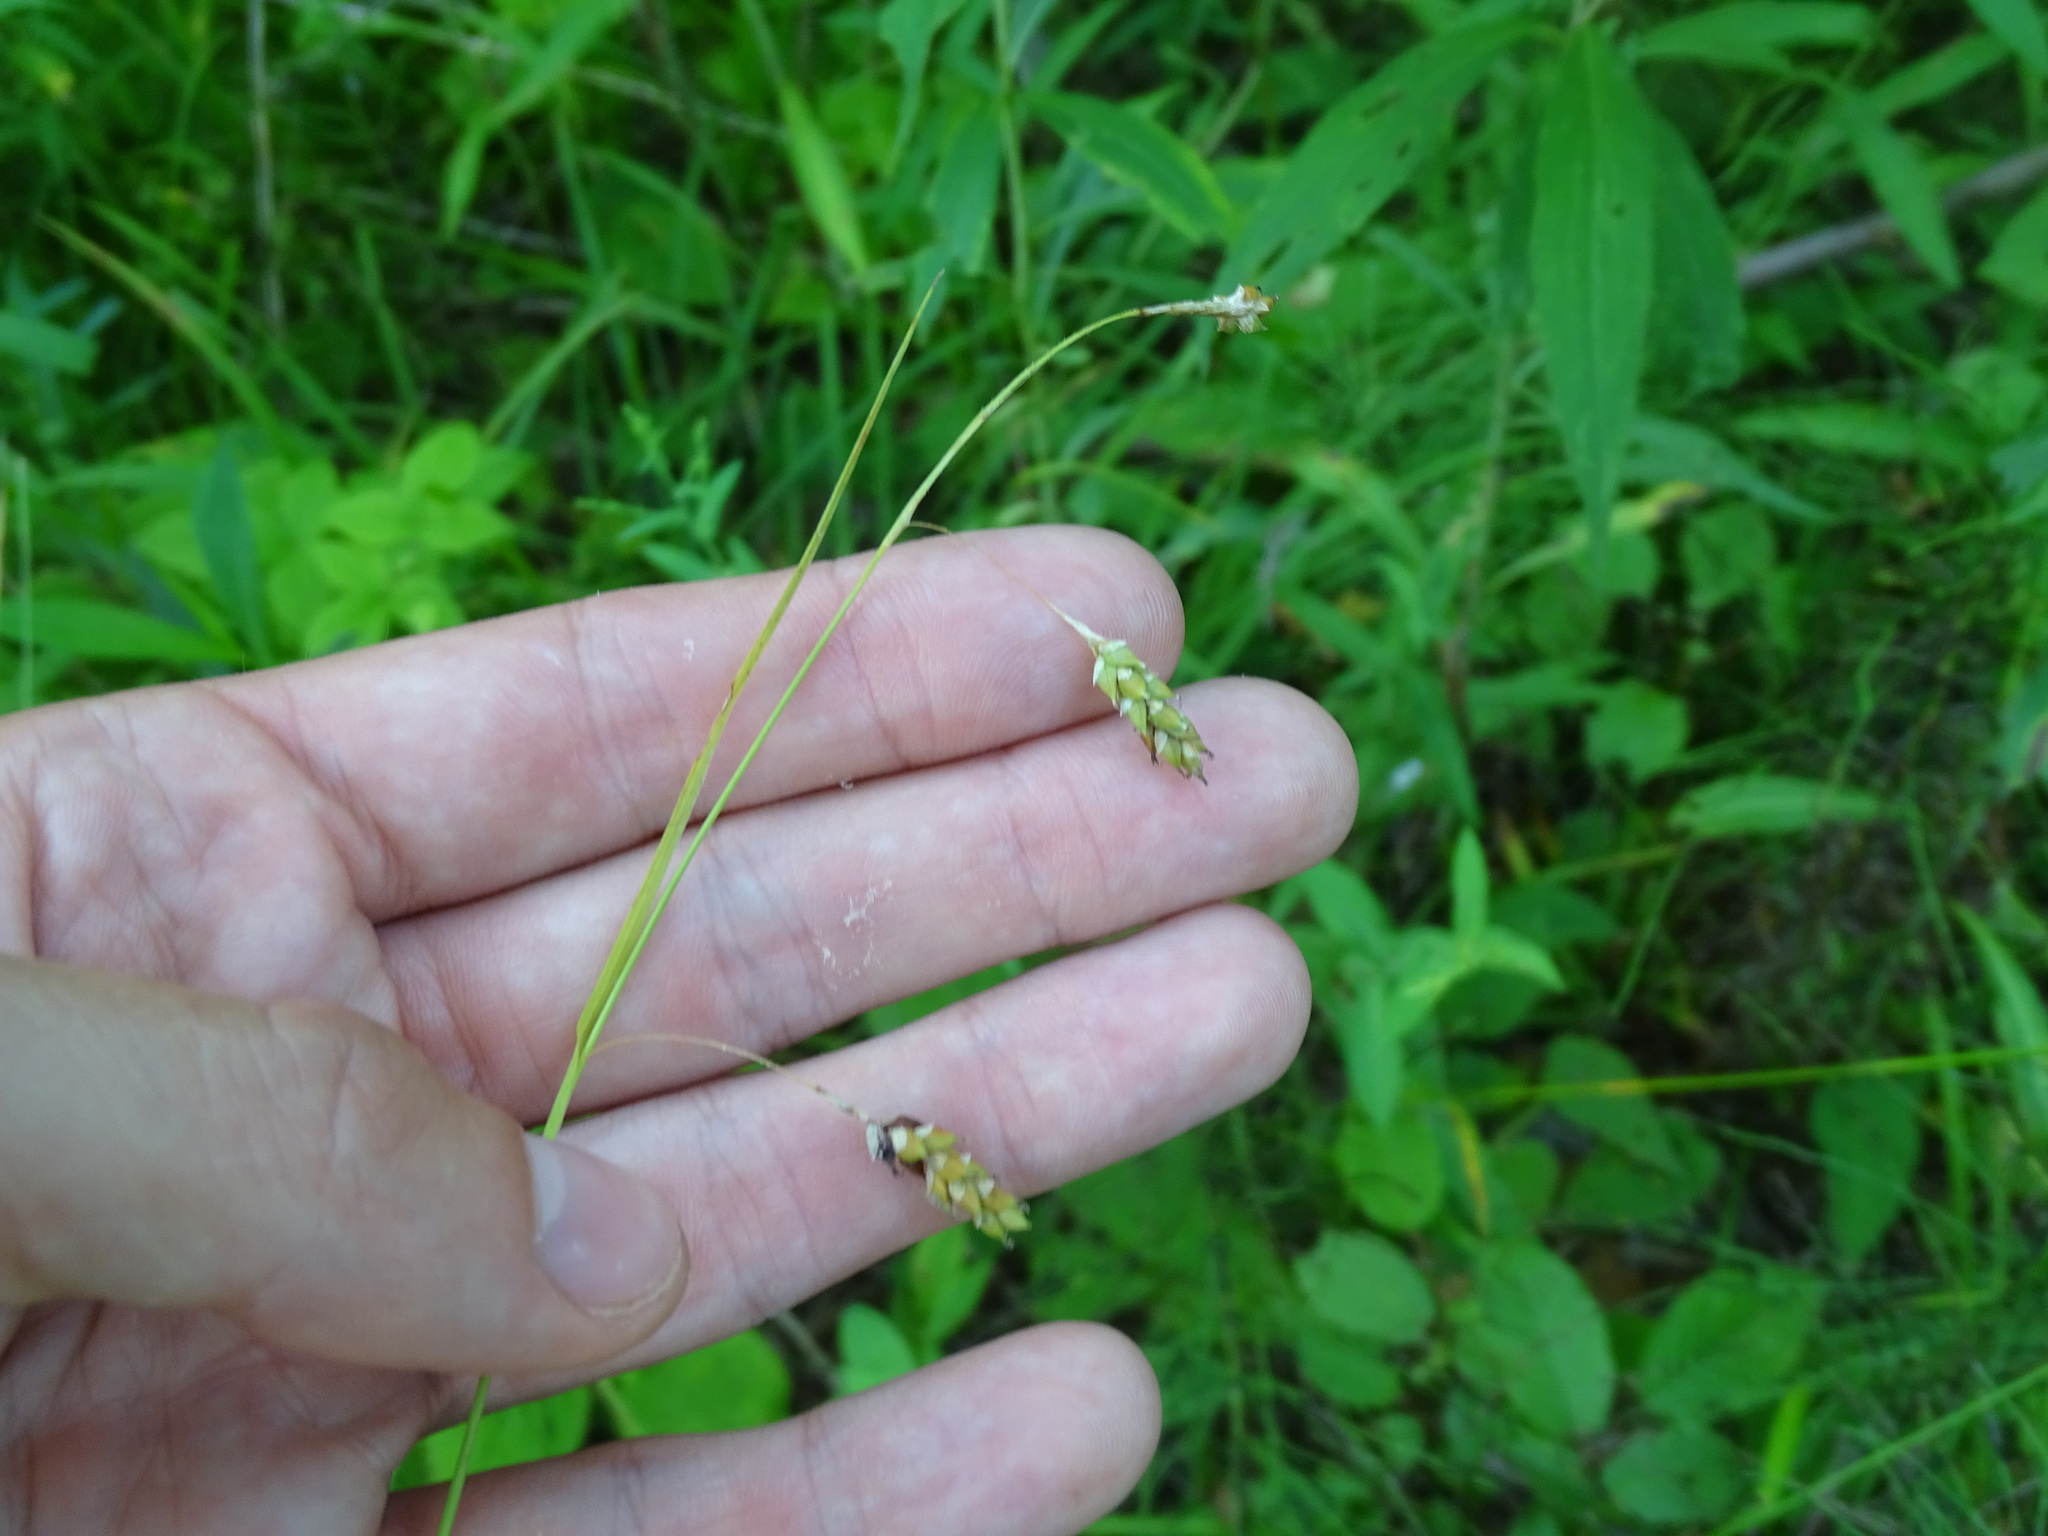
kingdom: Plantae
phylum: Tracheophyta
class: Liliopsida
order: Poales
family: Cyperaceae
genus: Carex
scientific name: Carex formosa
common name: Awnless graceful sedge
